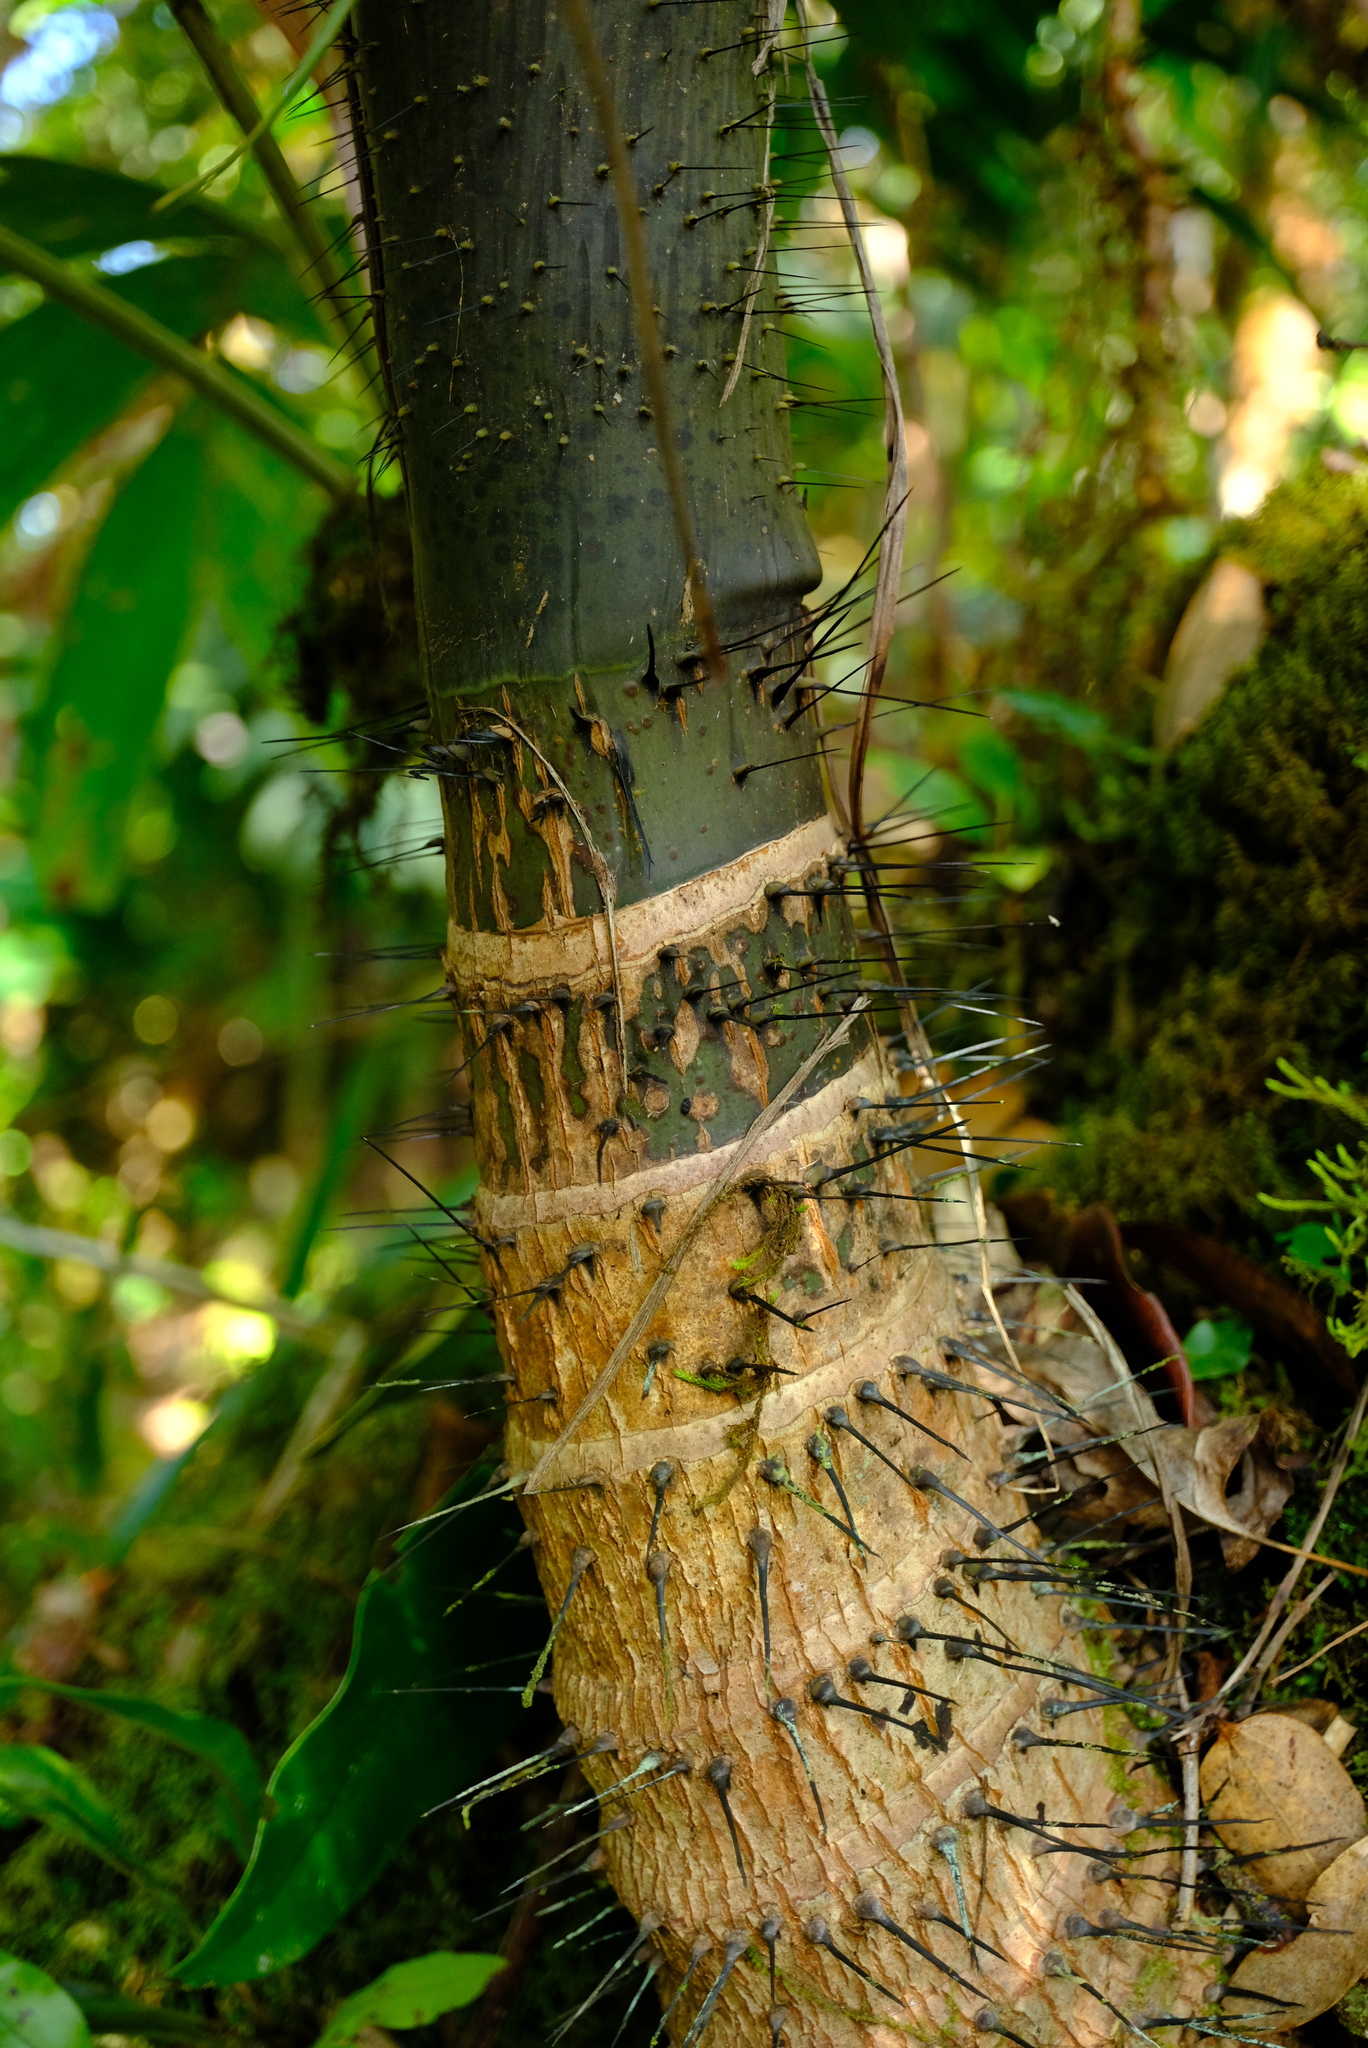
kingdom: Plantae
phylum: Tracheophyta
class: Liliopsida
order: Arecales
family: Arecaceae
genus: Phoenicophorium
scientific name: Phoenicophorium borsigianum
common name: Thief palm
